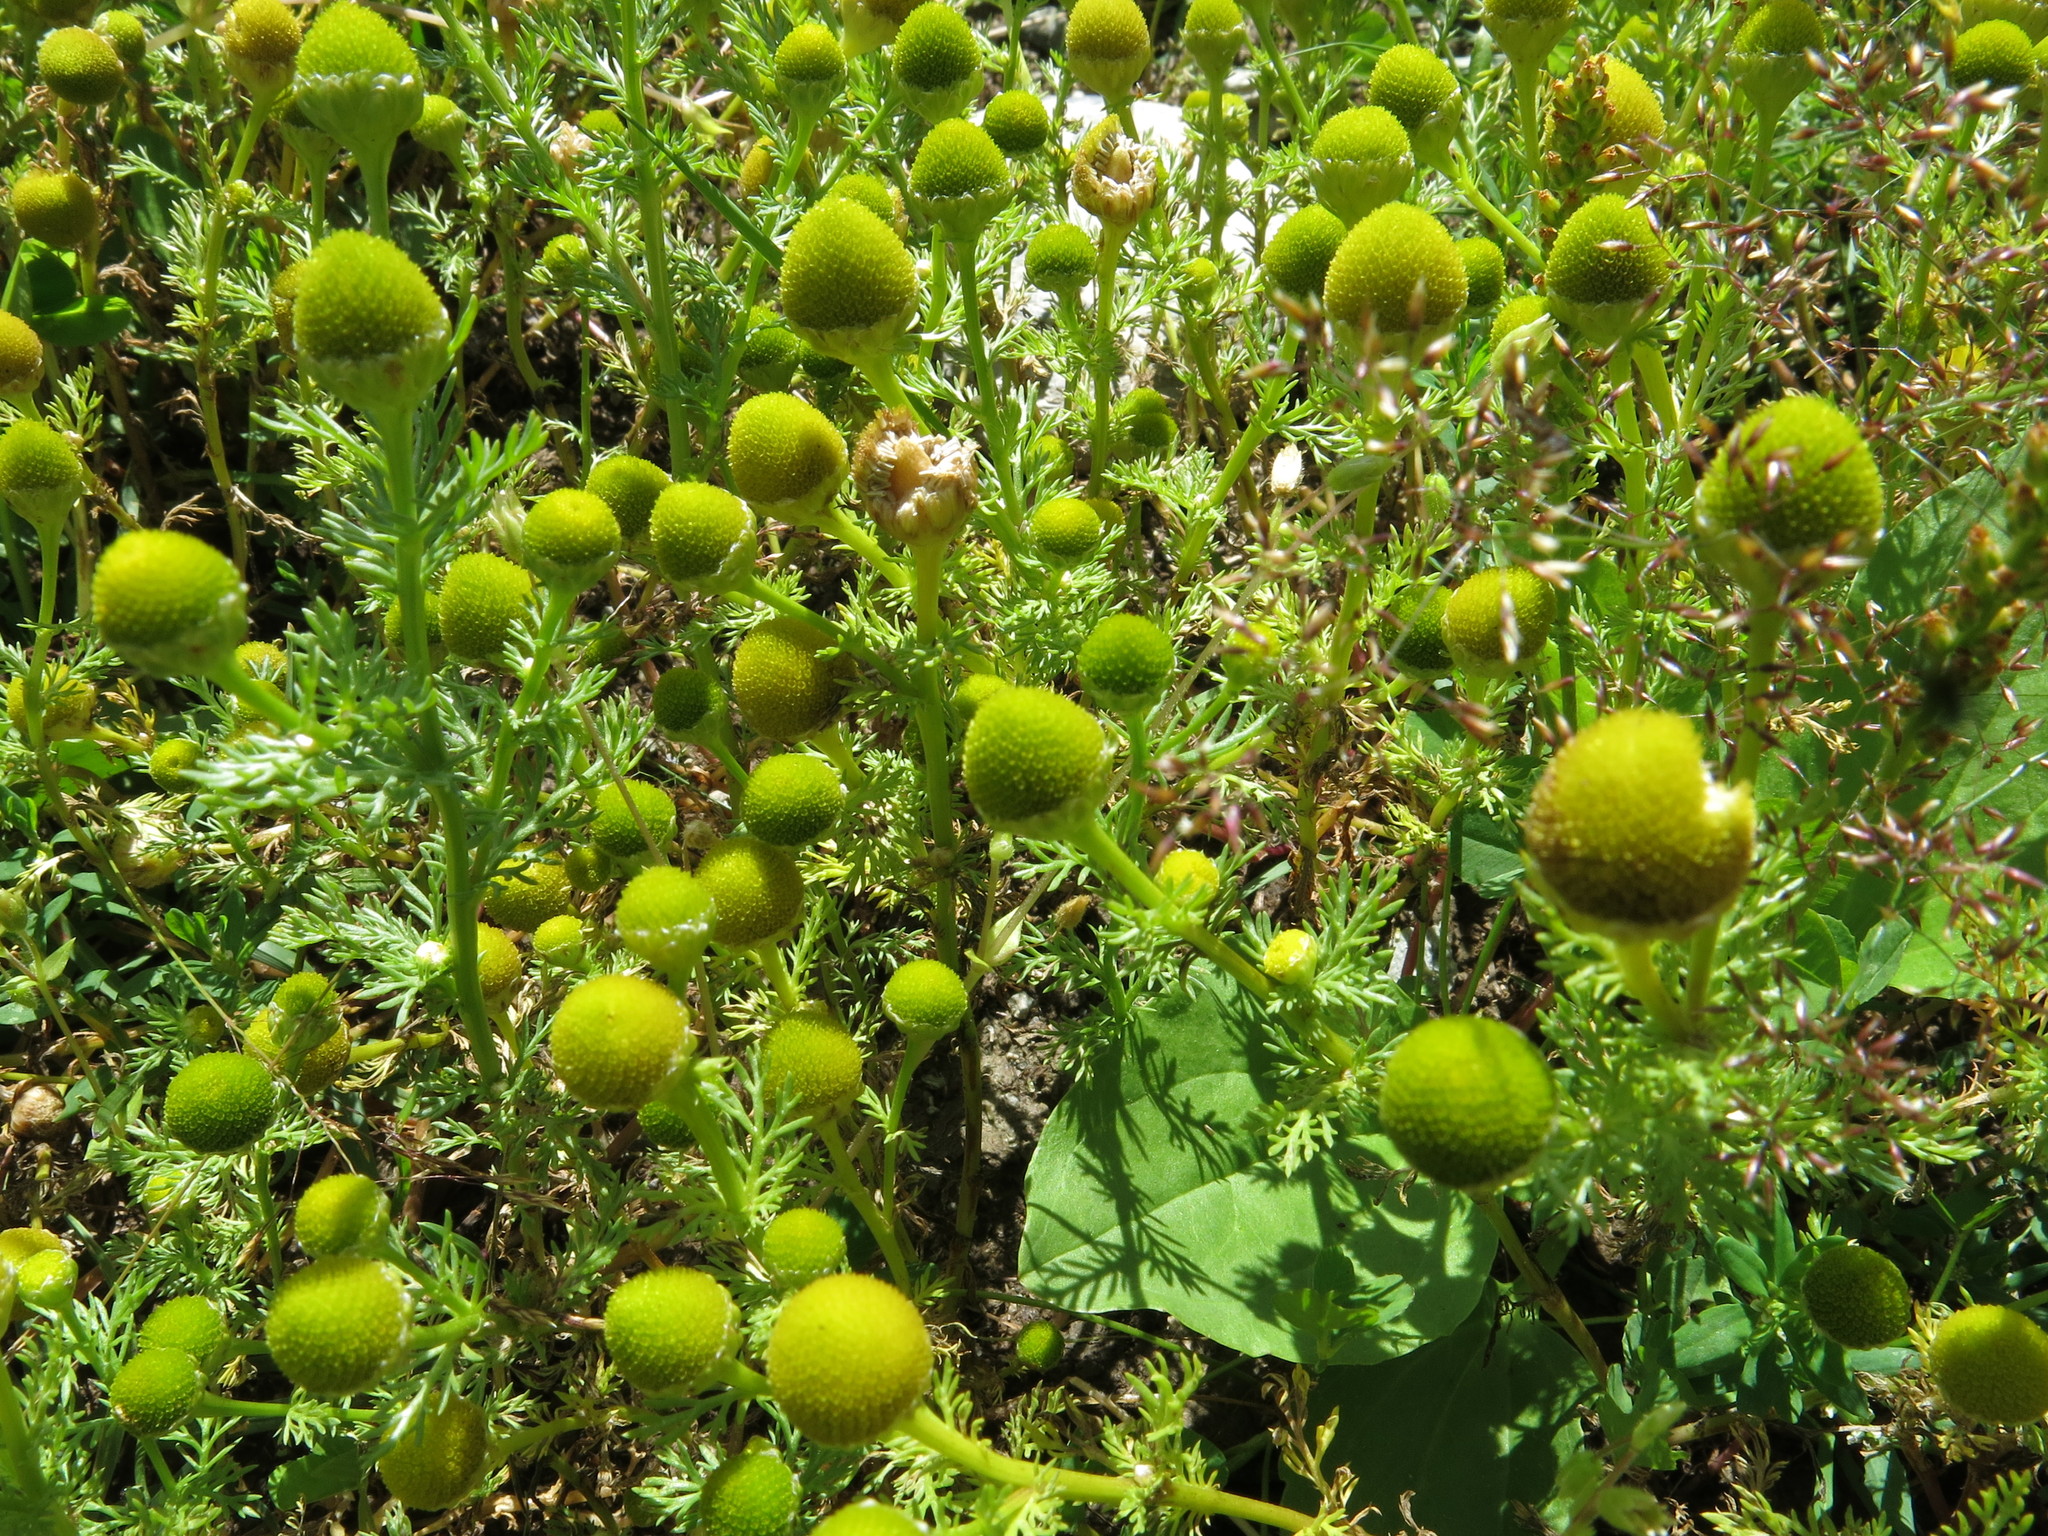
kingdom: Plantae
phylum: Tracheophyta
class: Magnoliopsida
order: Asterales
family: Asteraceae
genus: Matricaria
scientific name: Matricaria discoidea
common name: Disc mayweed
